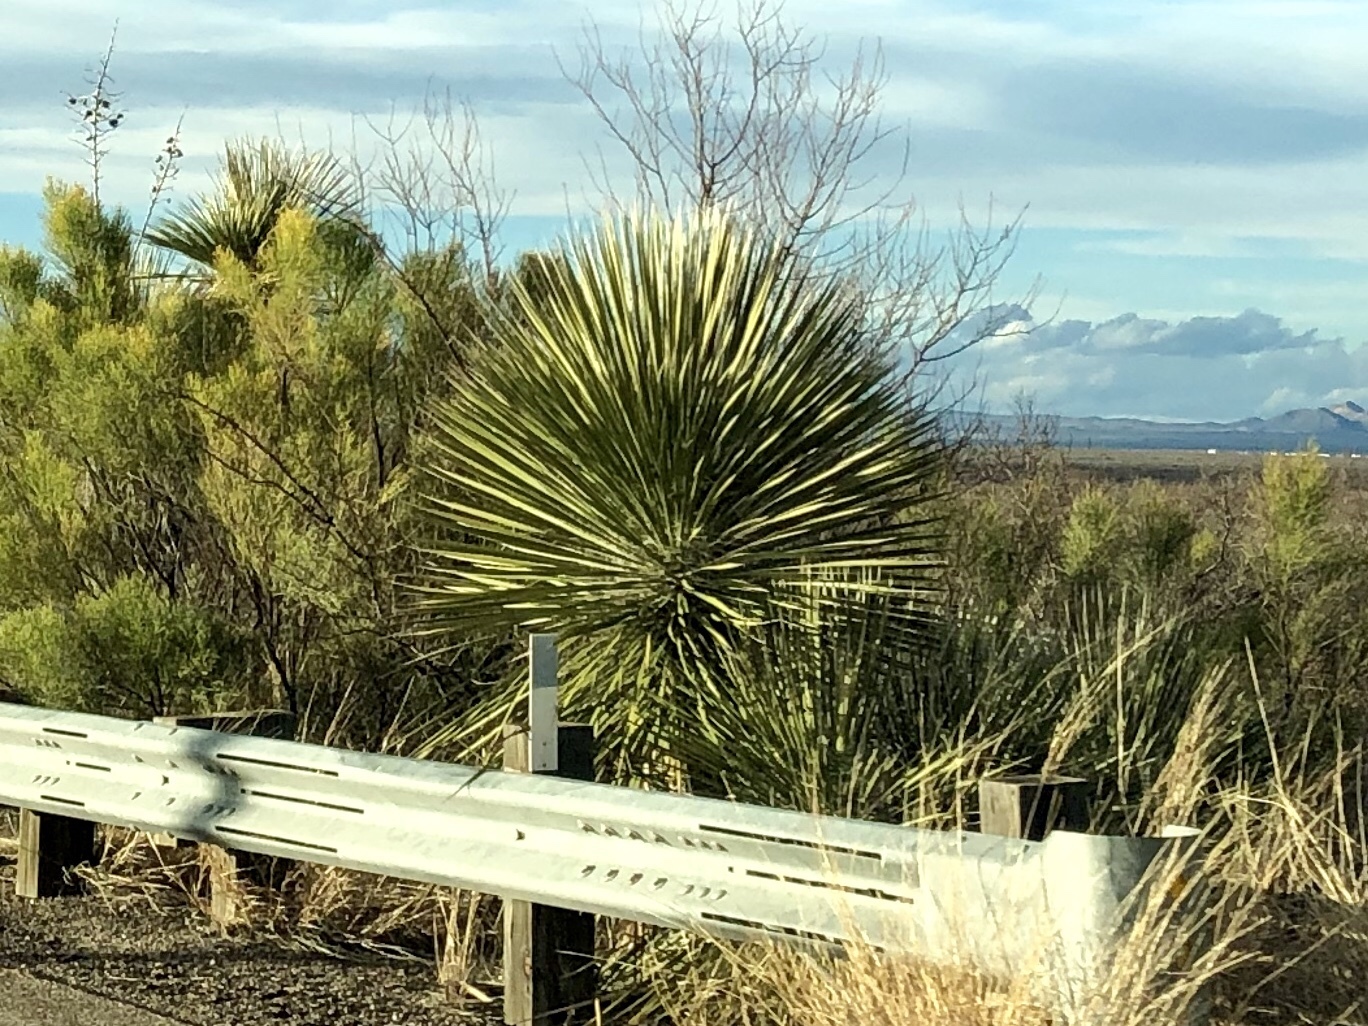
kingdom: Plantae
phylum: Tracheophyta
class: Liliopsida
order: Asparagales
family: Asparagaceae
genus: Yucca
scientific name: Yucca elata
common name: Palmella
